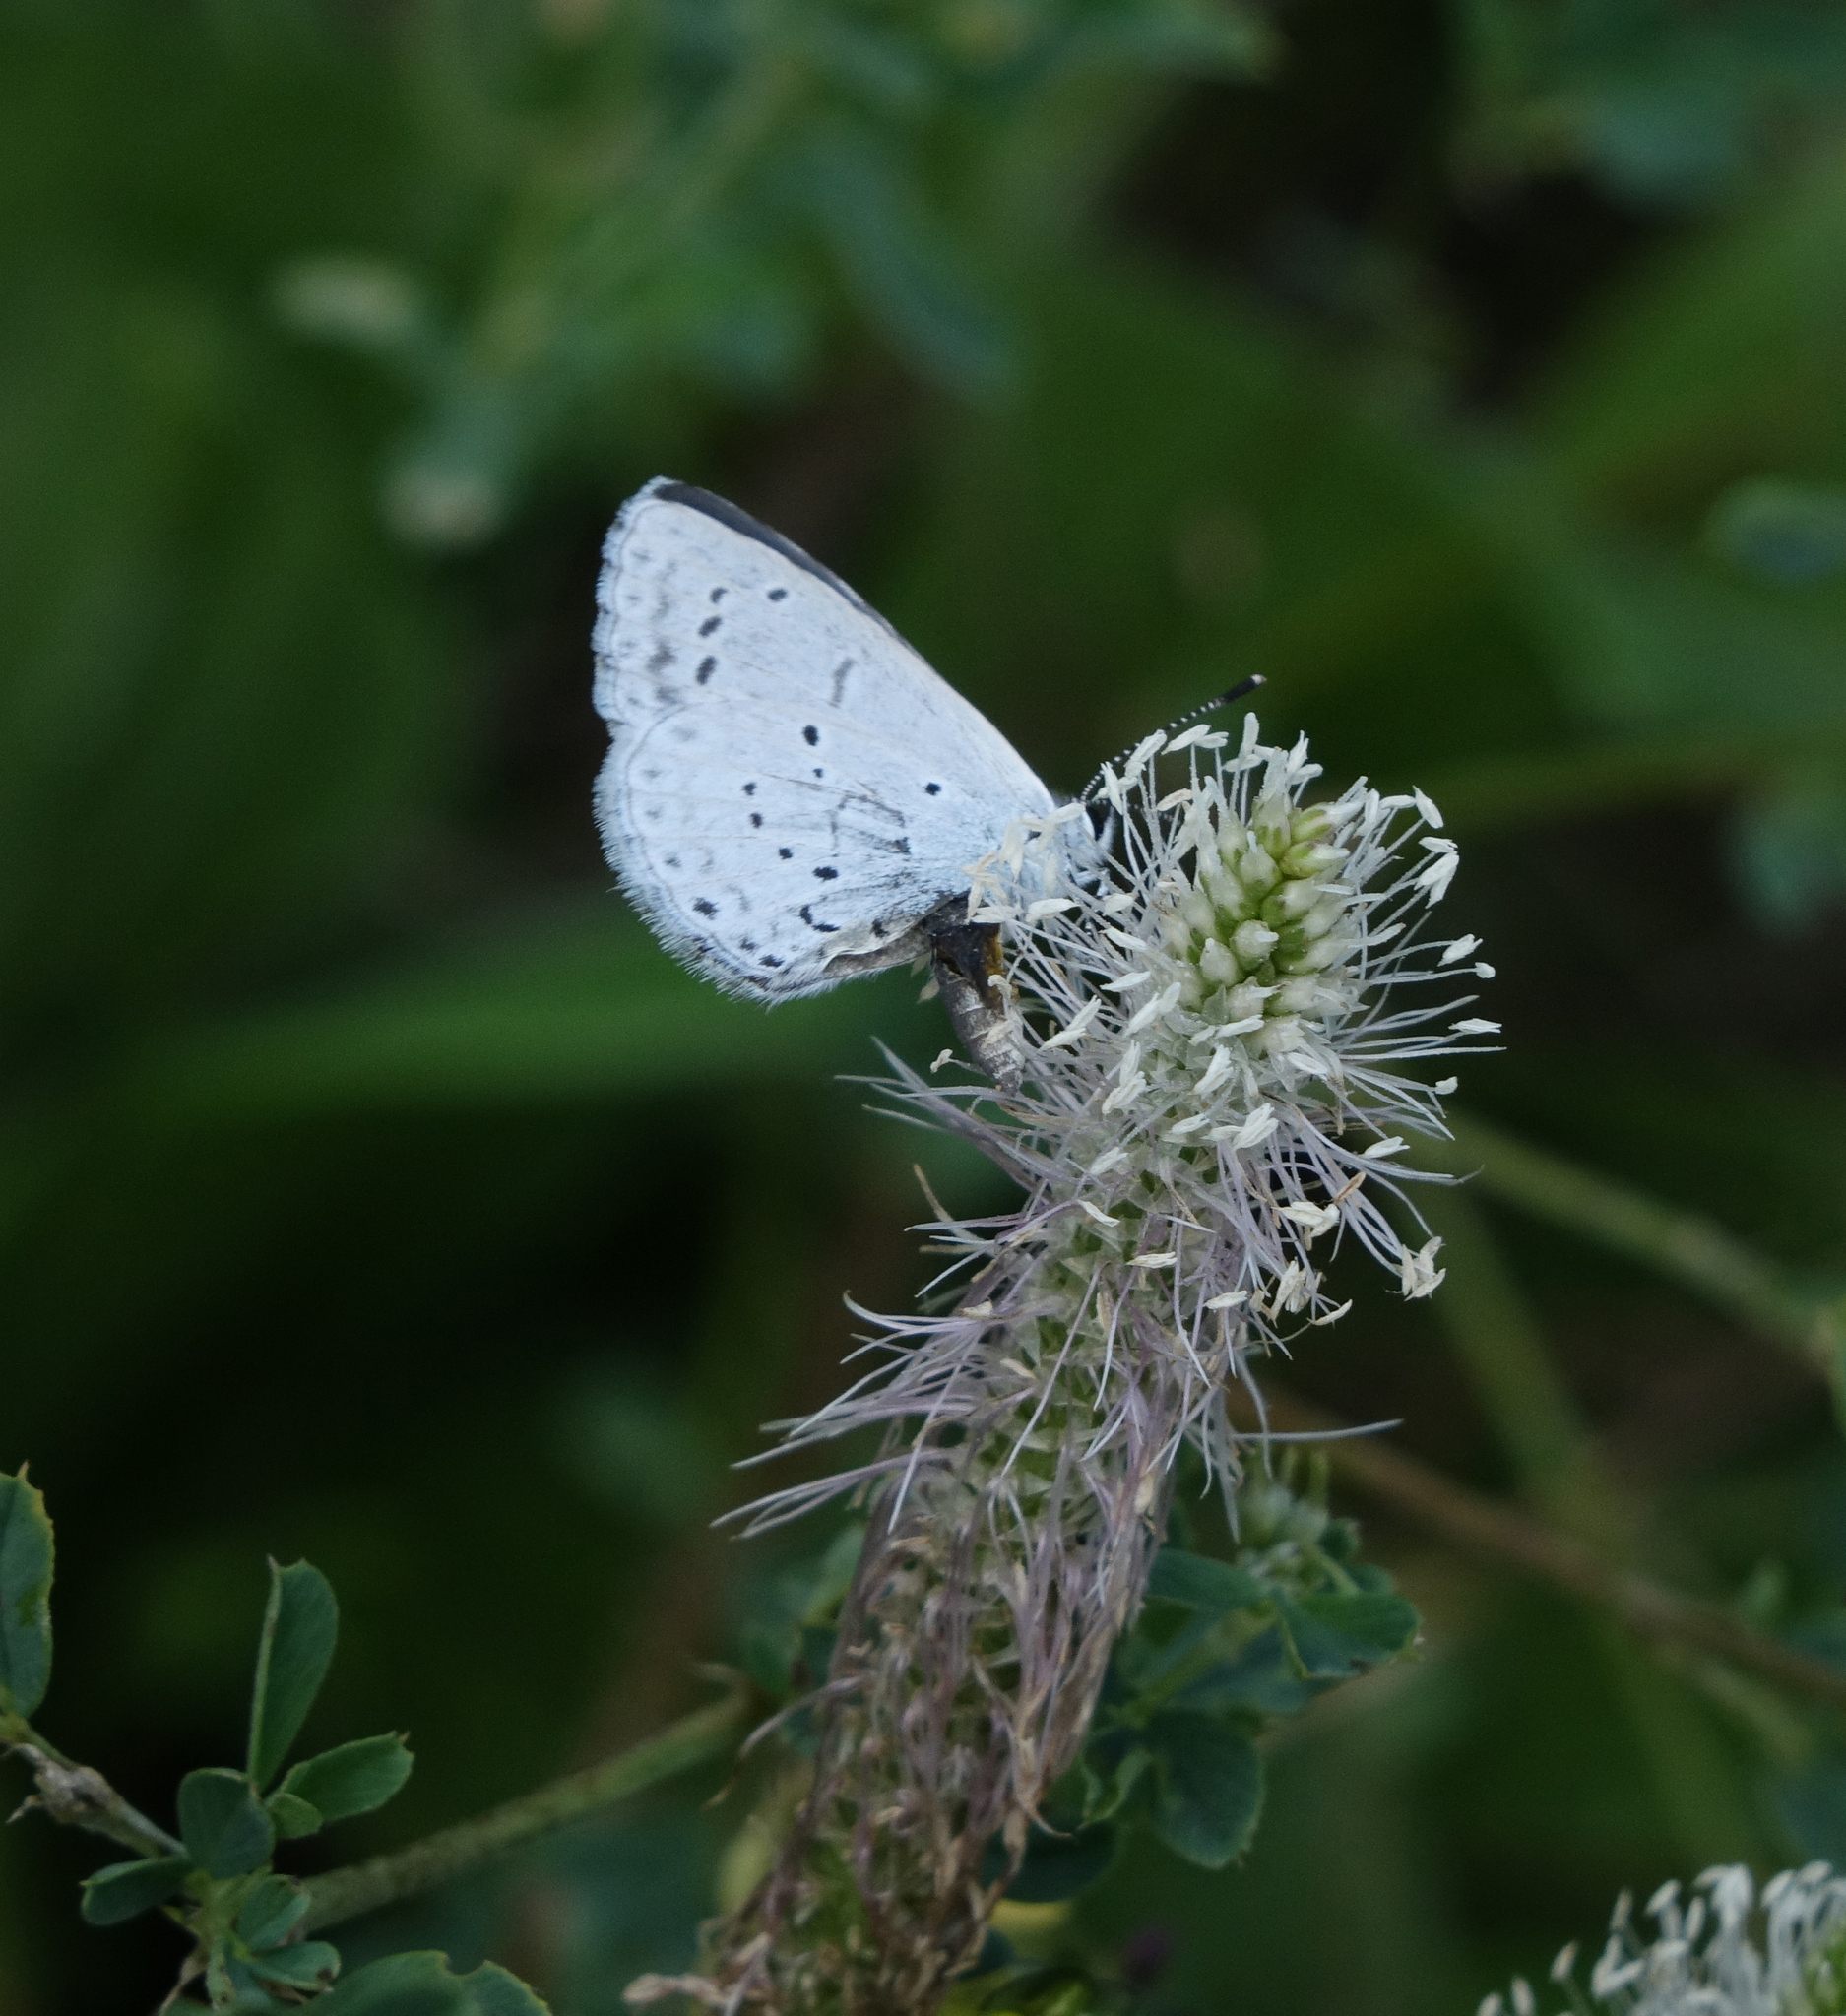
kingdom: Animalia
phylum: Arthropoda
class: Insecta
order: Lepidoptera
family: Lycaenidae
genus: Celastrina
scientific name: Celastrina argiolus
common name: Holly blue
